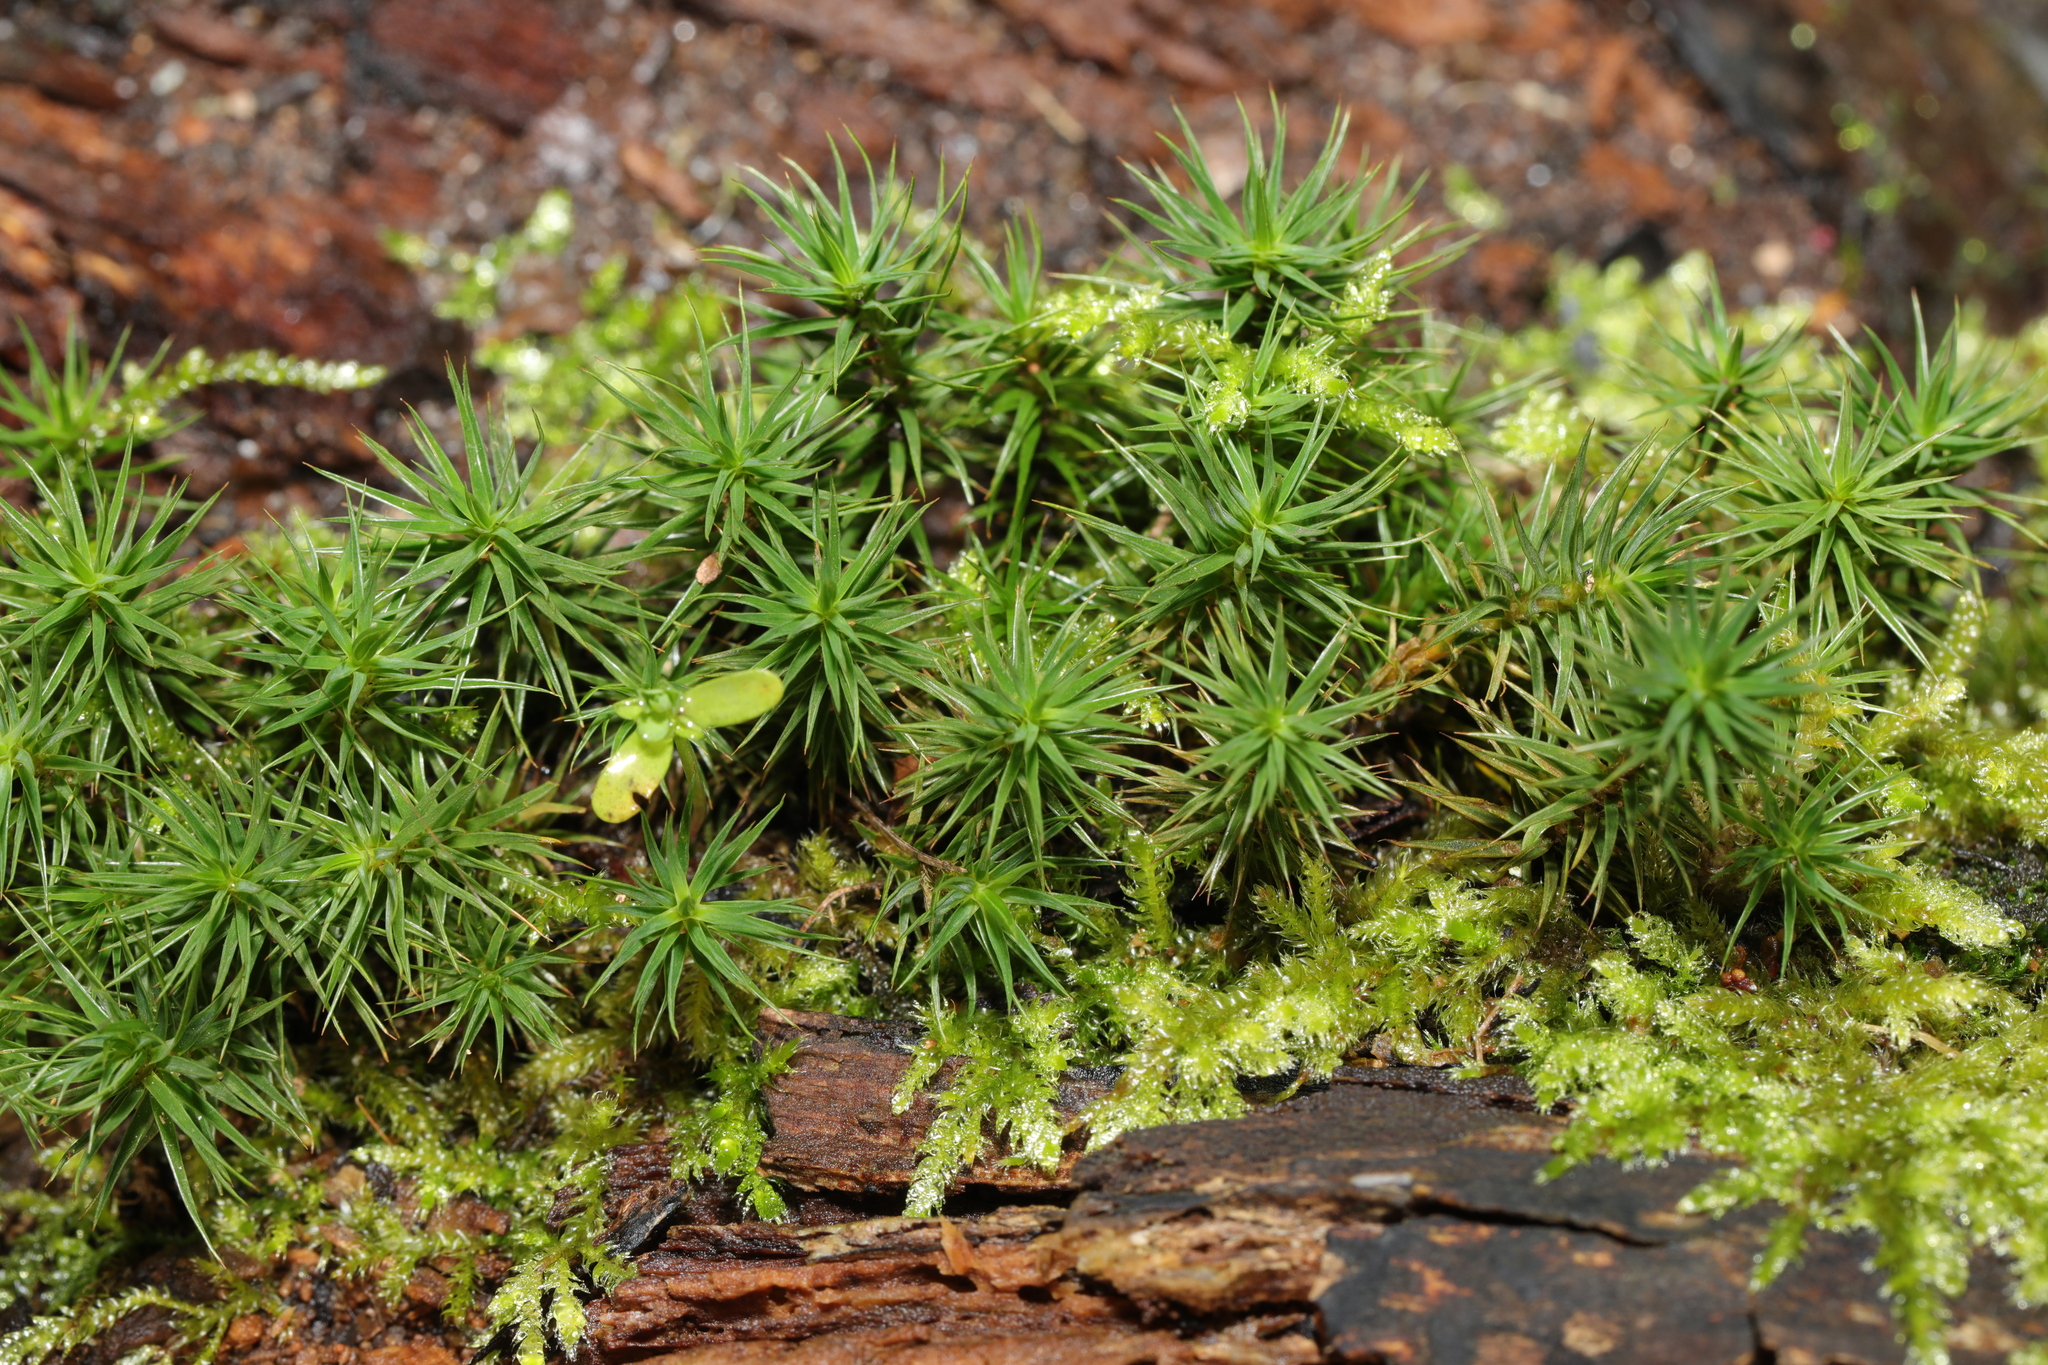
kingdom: Plantae
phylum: Bryophyta
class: Polytrichopsida
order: Polytrichales
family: Polytrichaceae
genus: Polytrichum
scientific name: Polytrichum formosum
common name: Bank haircap moss
